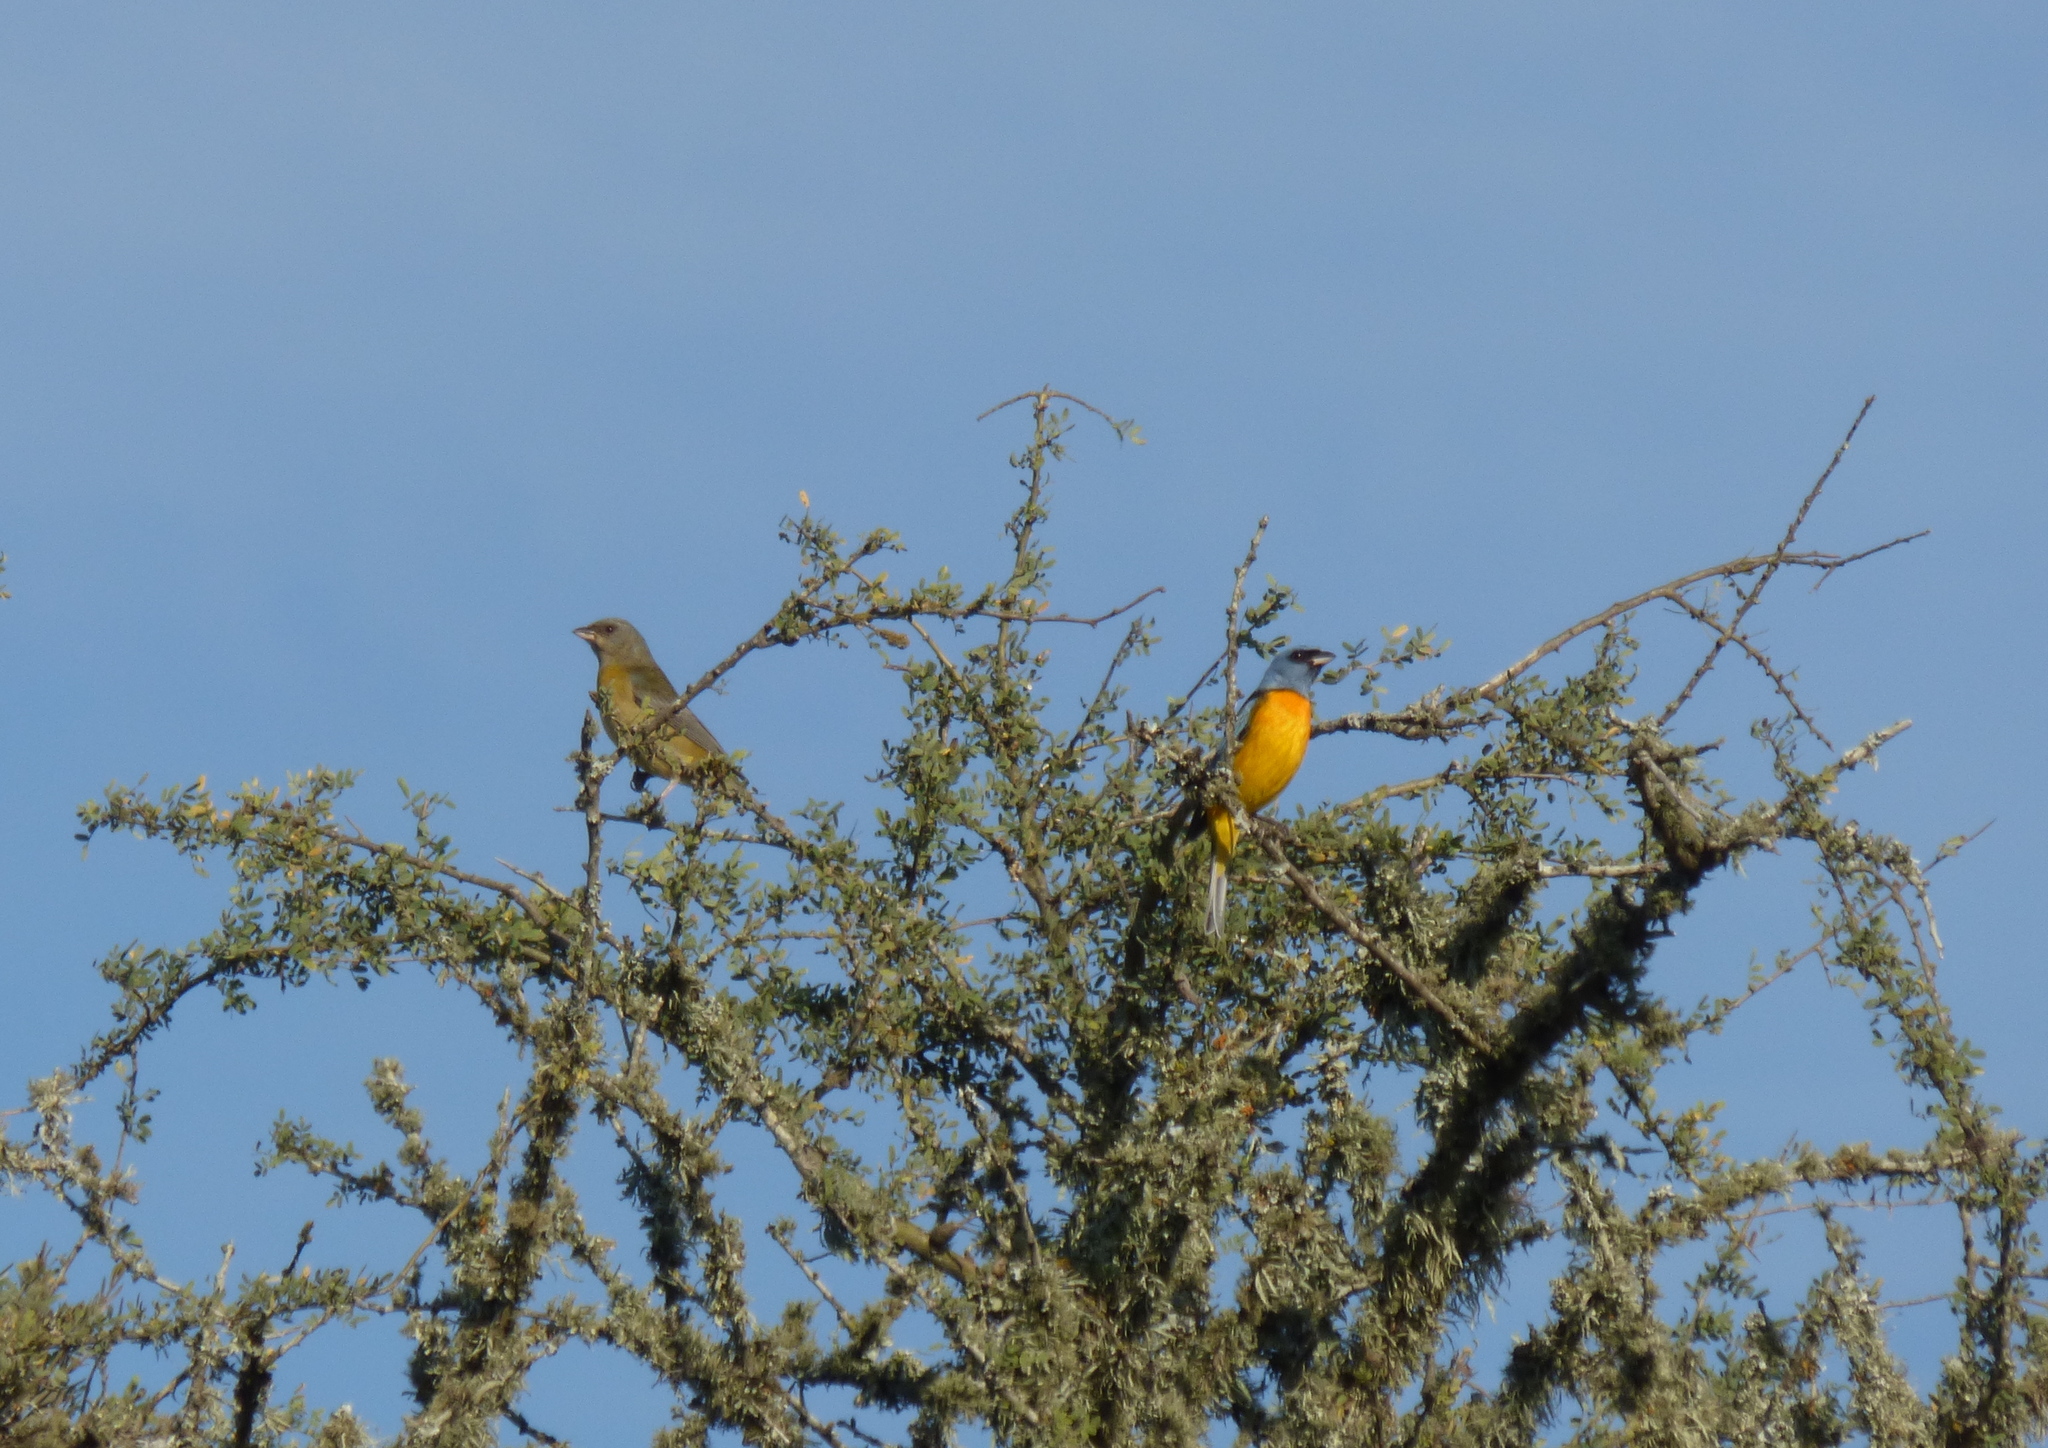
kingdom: Animalia
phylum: Chordata
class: Aves
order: Passeriformes
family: Thraupidae
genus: Rauenia
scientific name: Rauenia bonariensis
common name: Blue-and-yellow tanager
